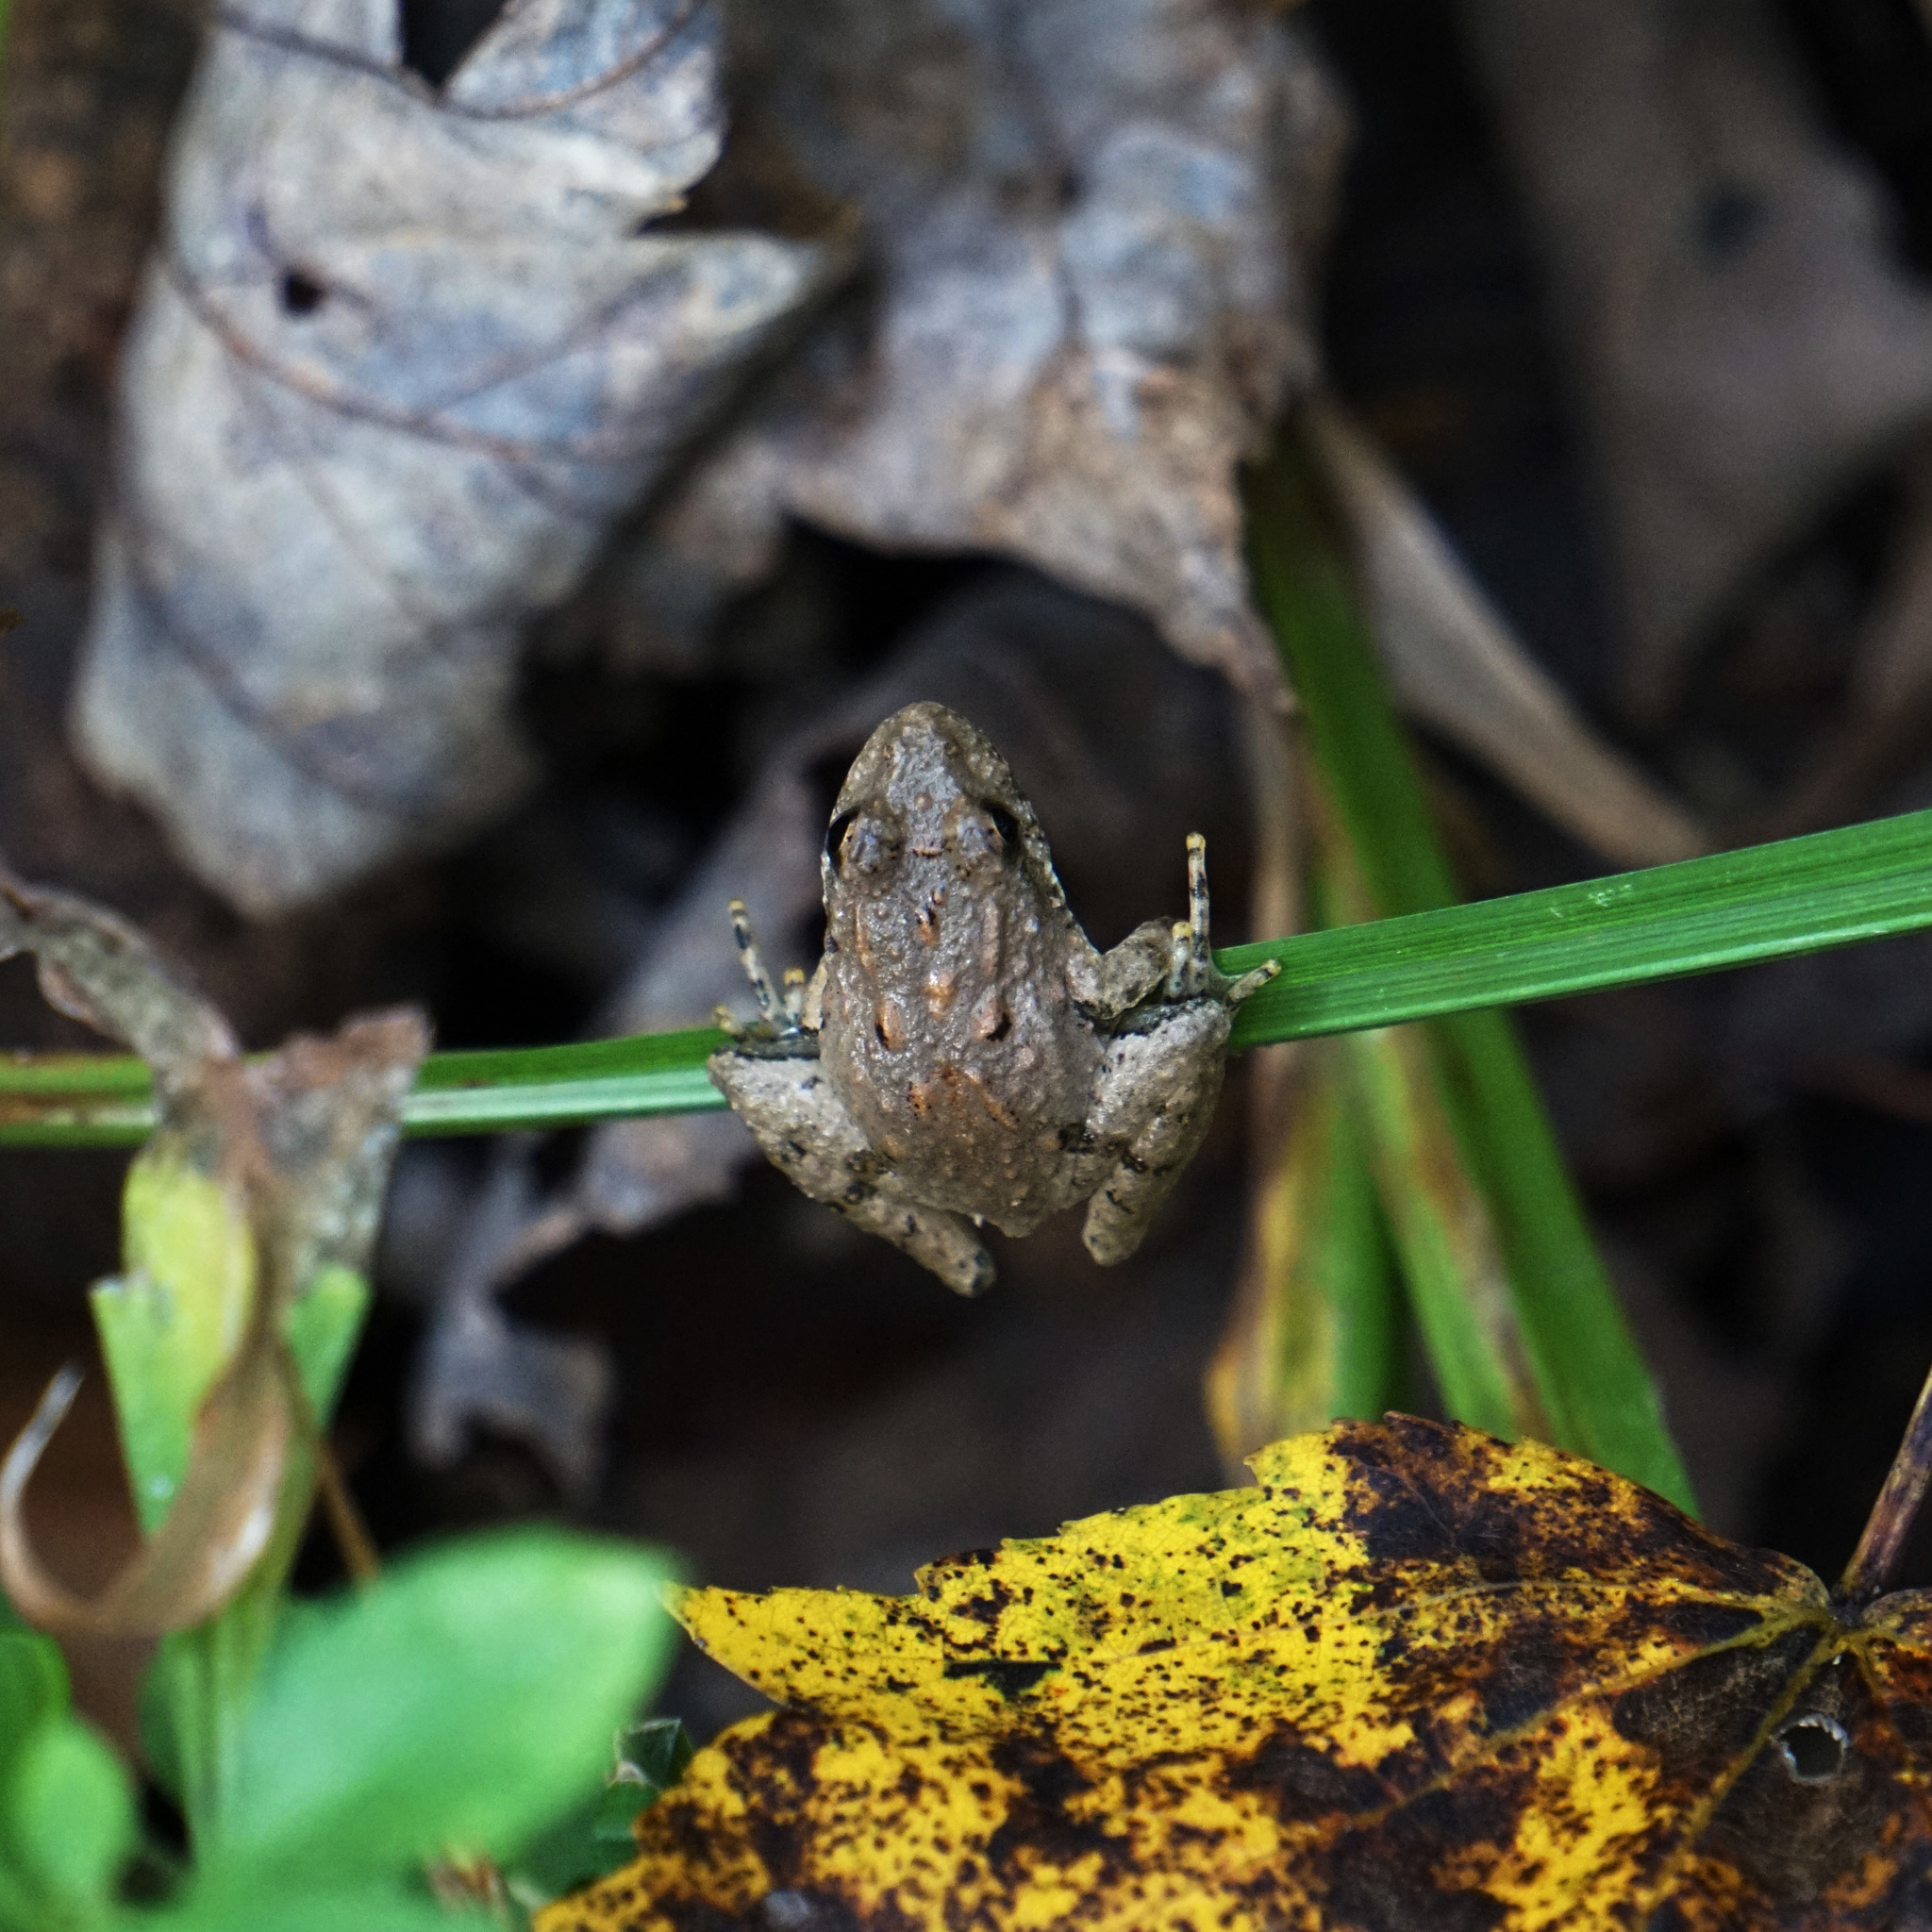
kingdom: Animalia
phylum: Chordata
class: Amphibia
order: Anura
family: Hylidae
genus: Acris
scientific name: Acris crepitans
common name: Northern cricket frog
